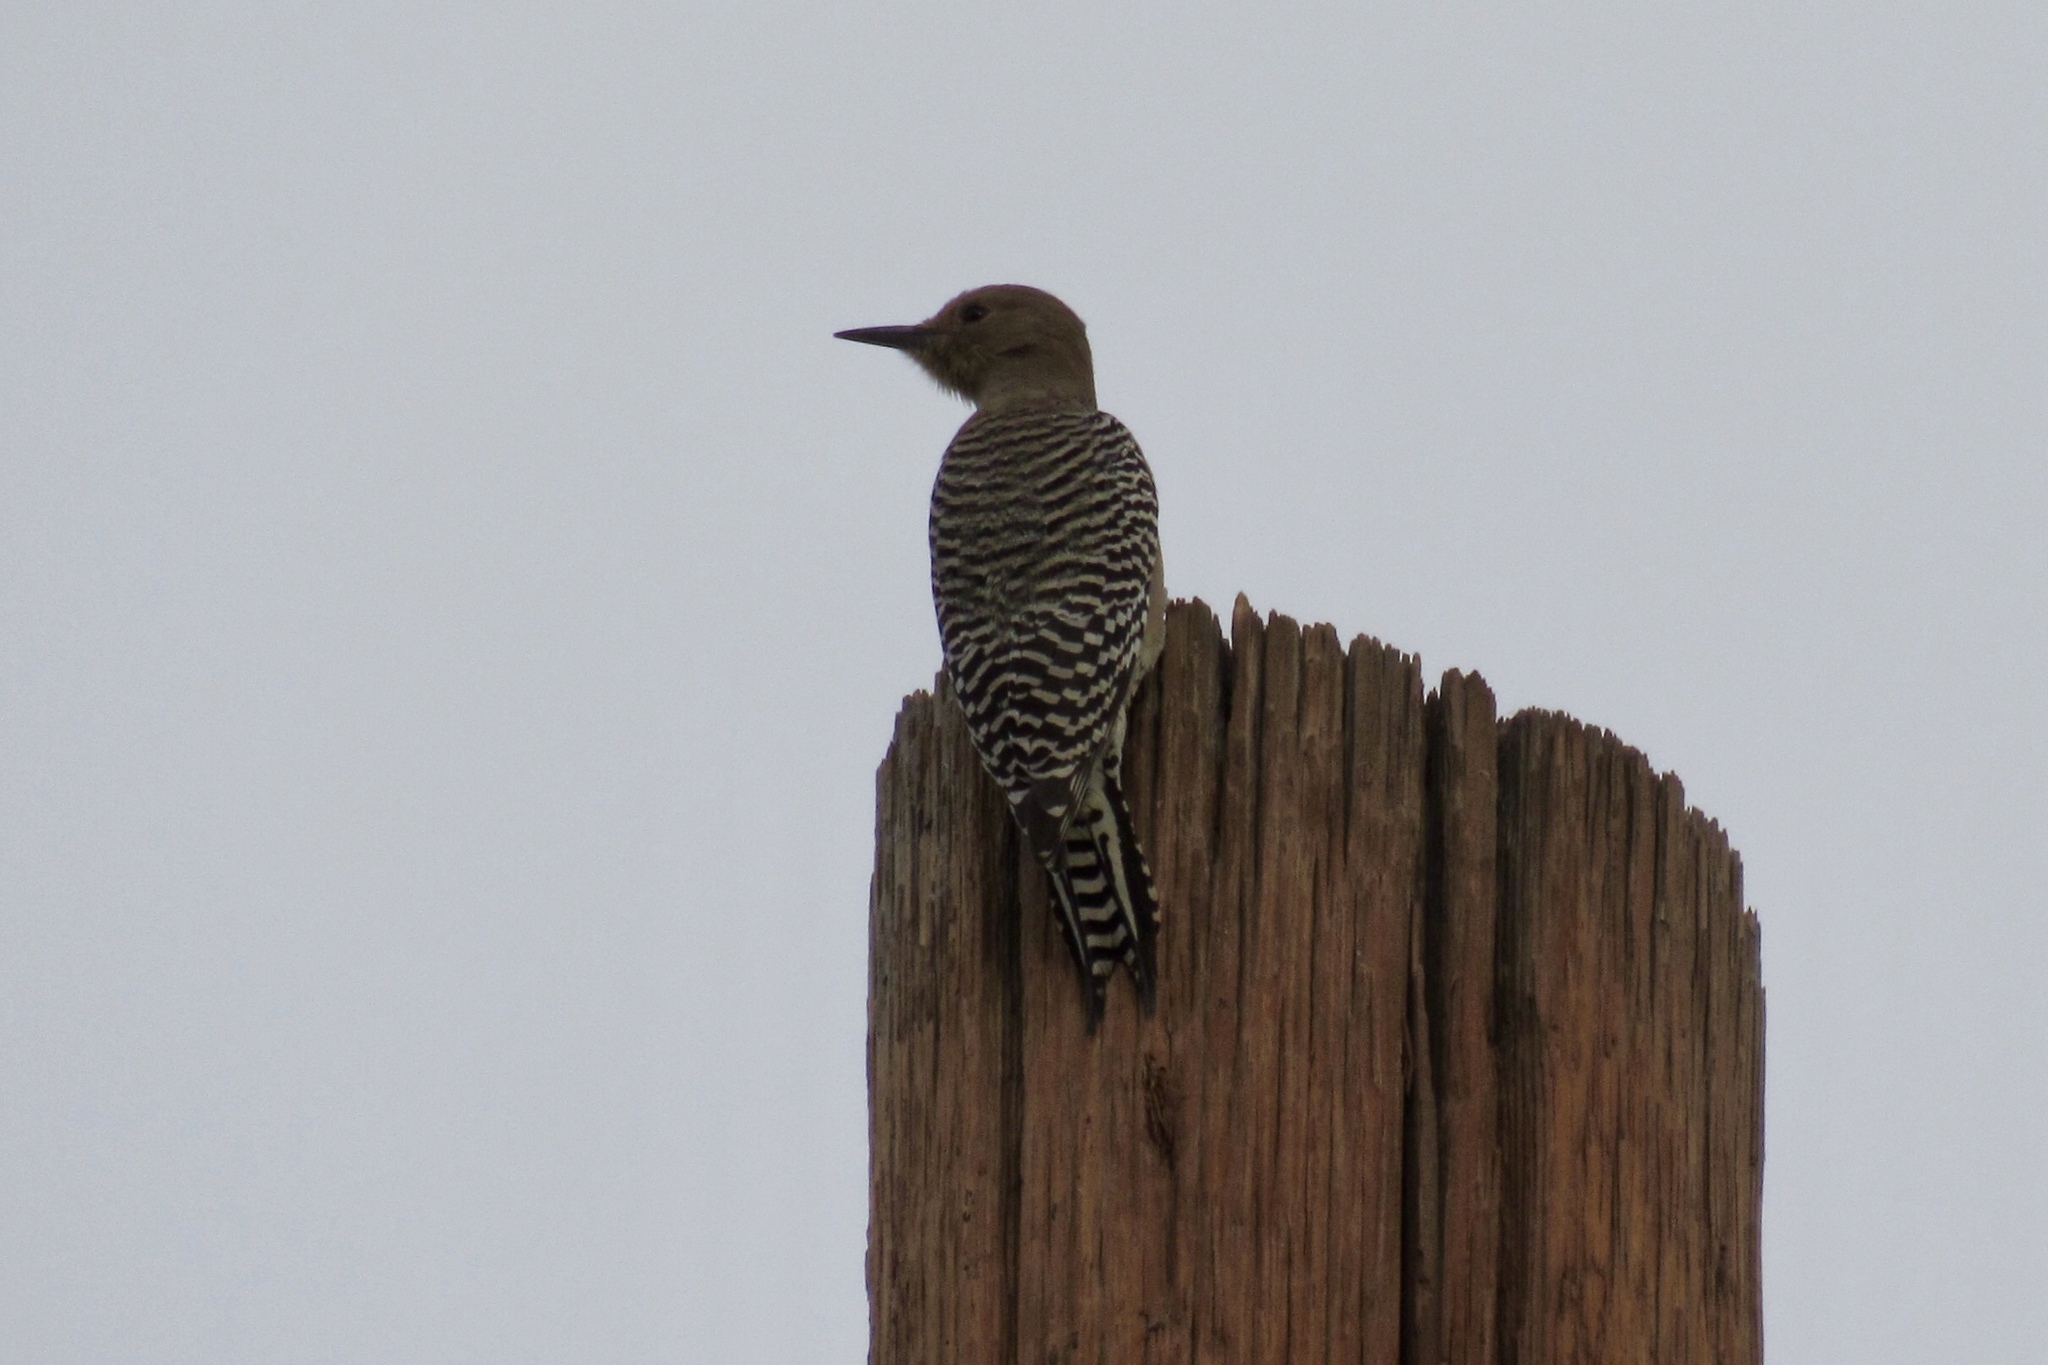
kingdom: Animalia
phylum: Chordata
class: Aves
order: Piciformes
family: Picidae
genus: Melanerpes
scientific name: Melanerpes uropygialis
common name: Gila woodpecker
